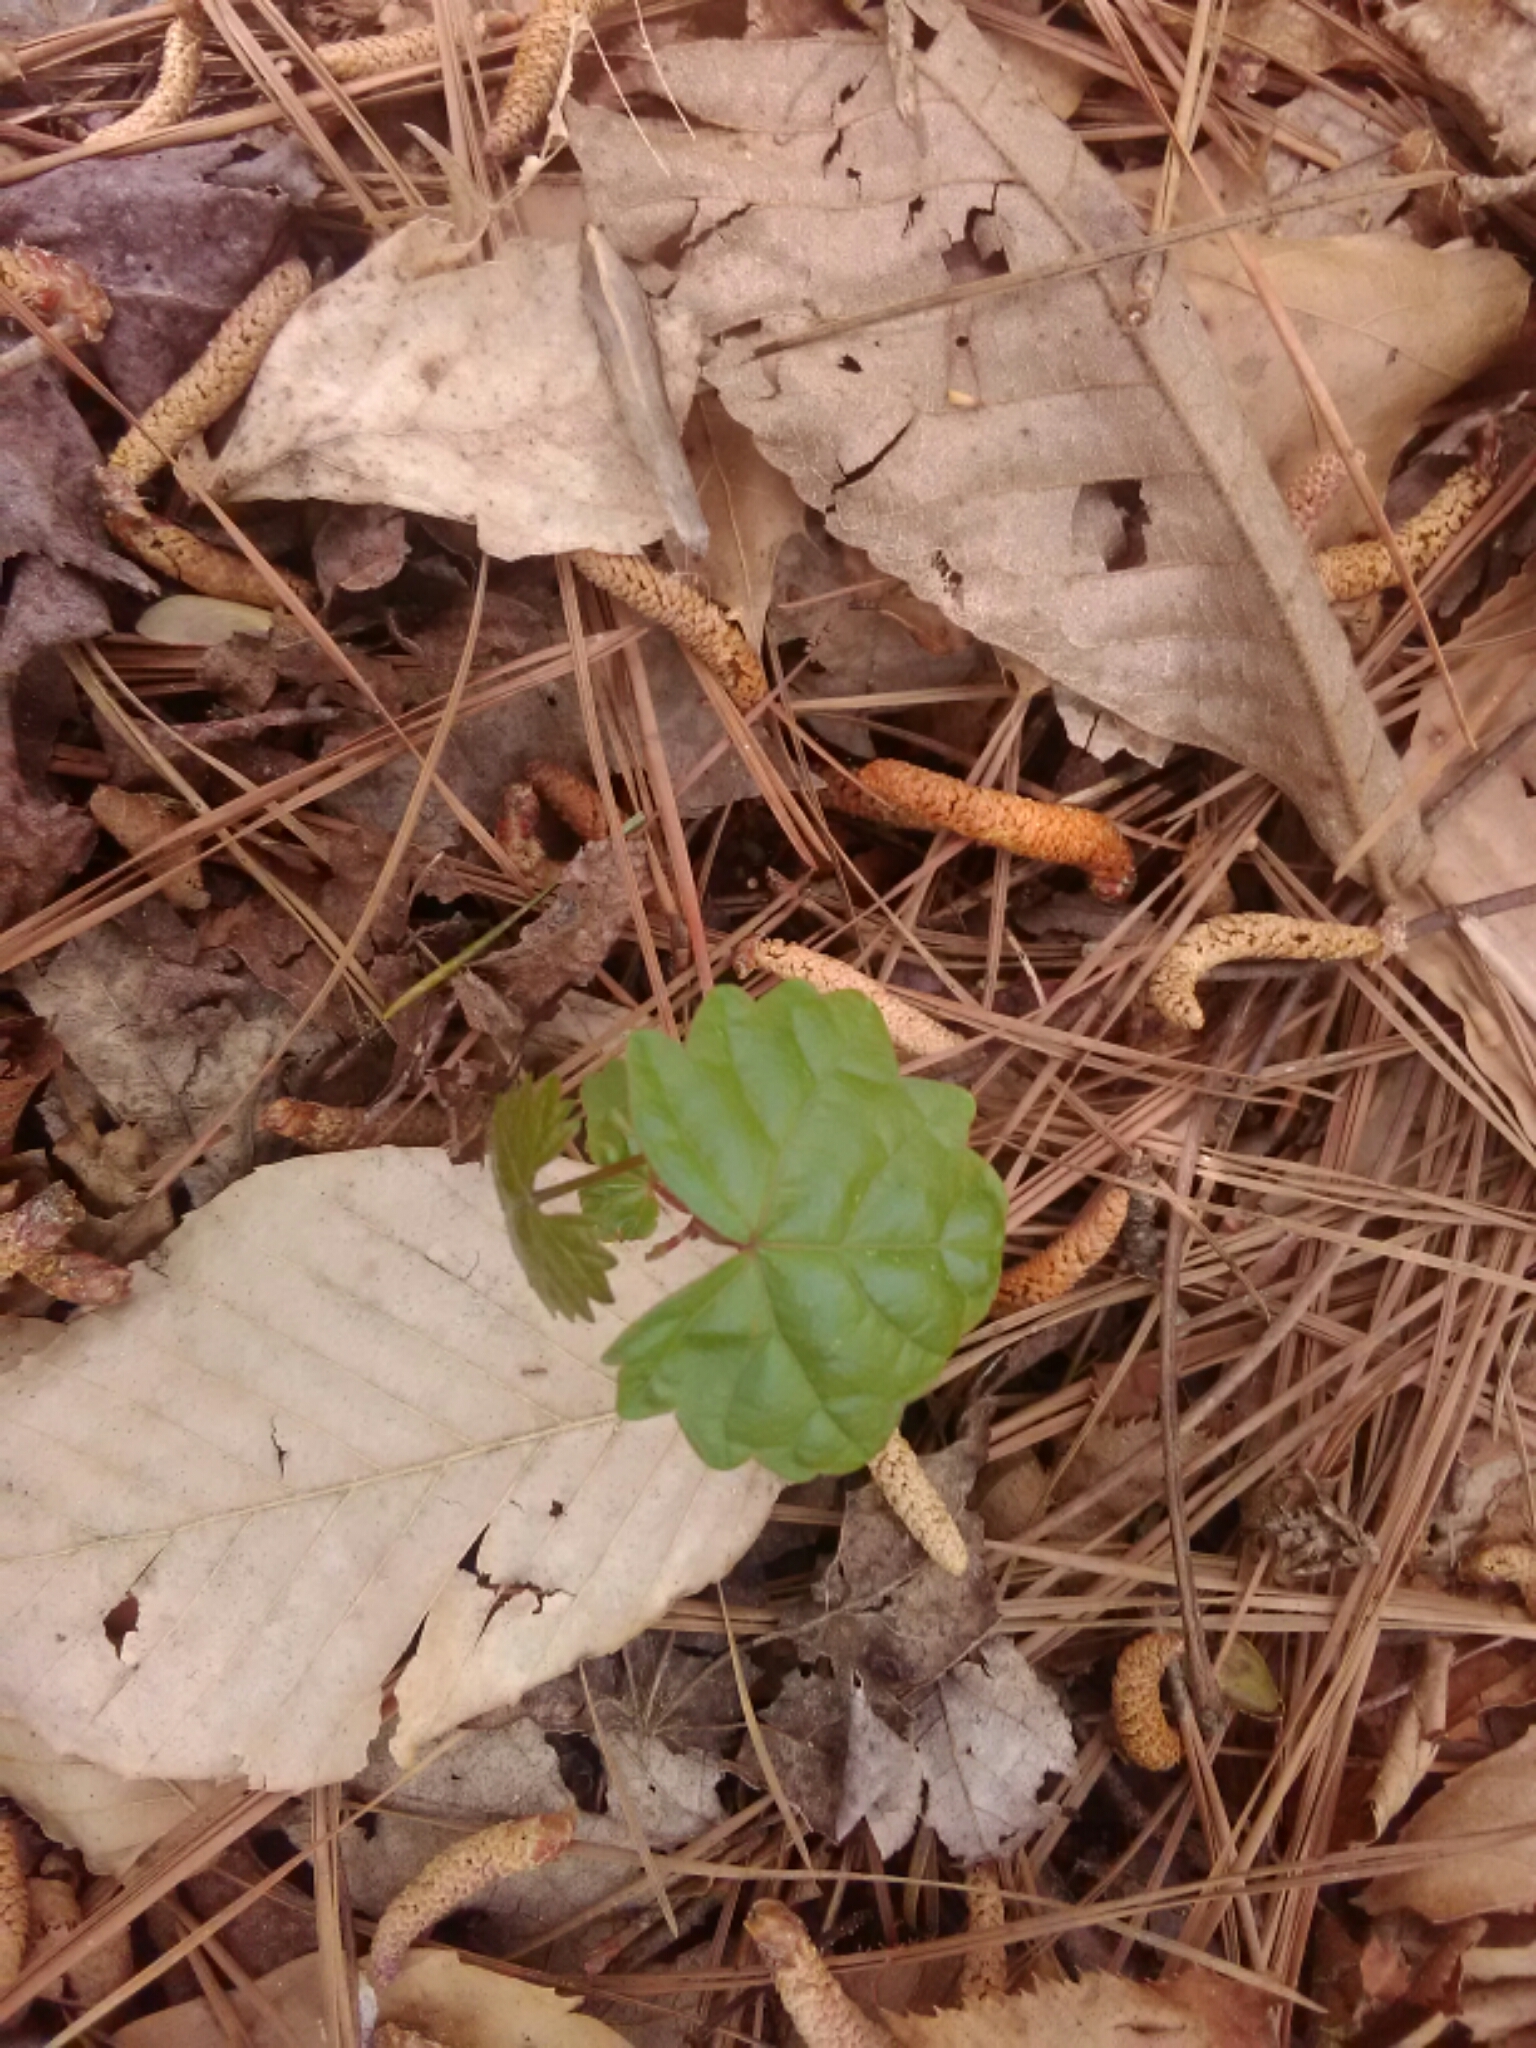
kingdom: Plantae
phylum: Tracheophyta
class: Magnoliopsida
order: Vitales
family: Vitaceae
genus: Vitis
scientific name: Vitis rotundifolia
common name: Muscadine grape
